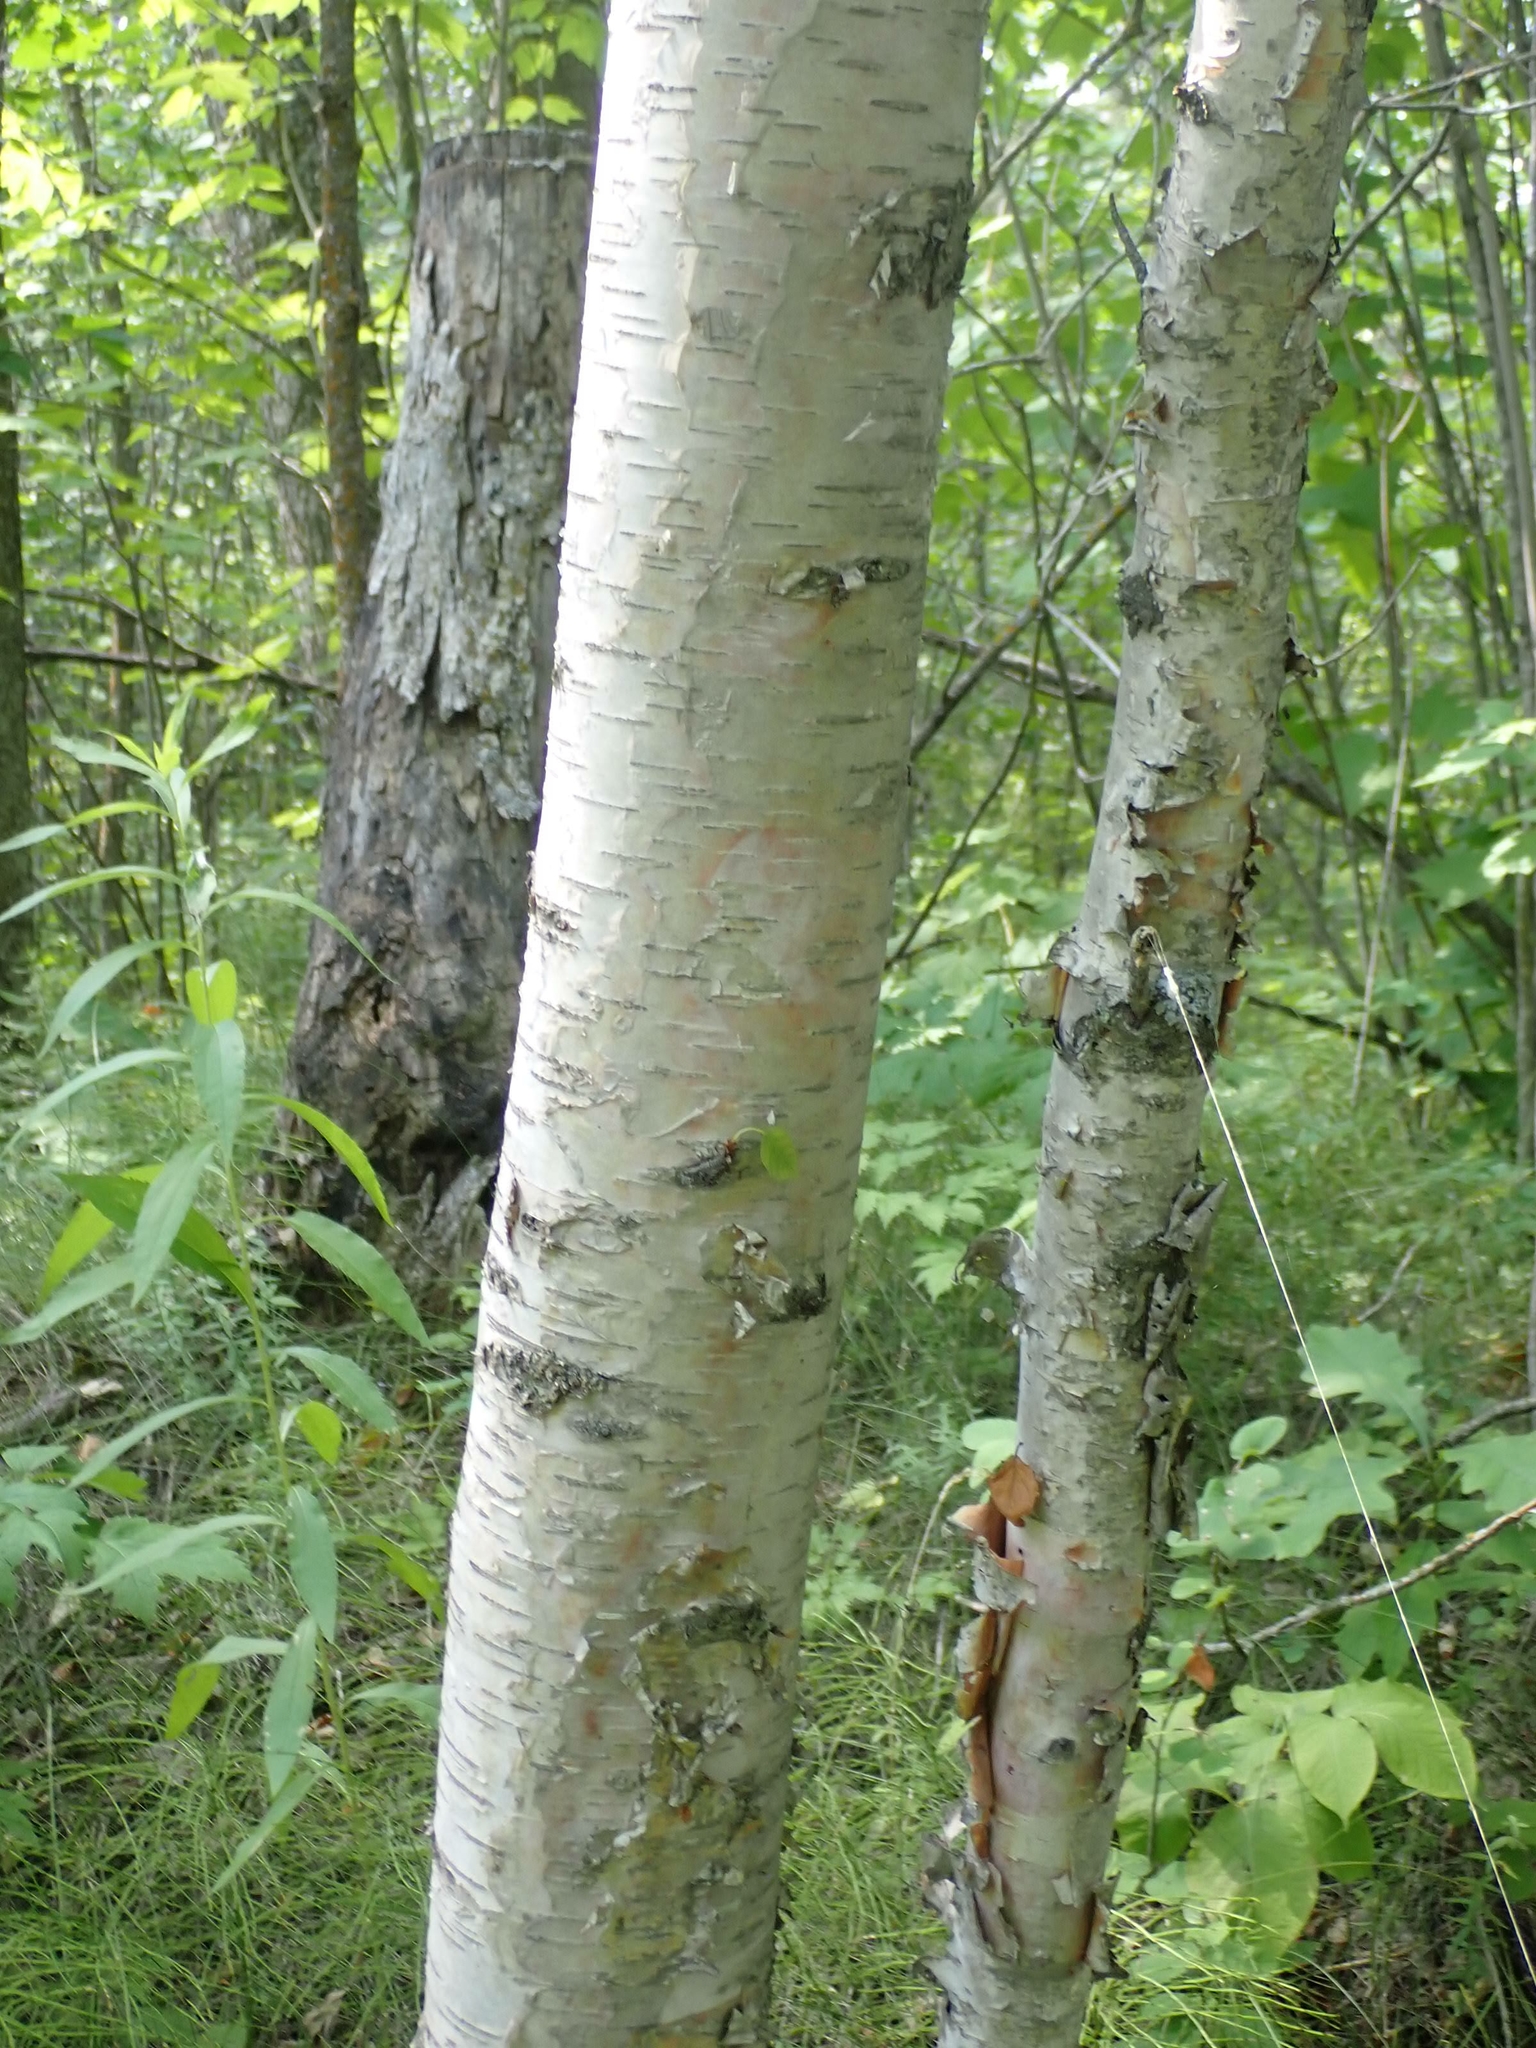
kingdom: Plantae
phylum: Tracheophyta
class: Magnoliopsida
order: Fagales
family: Betulaceae
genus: Betula
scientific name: Betula papyrifera
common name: Paper birch
